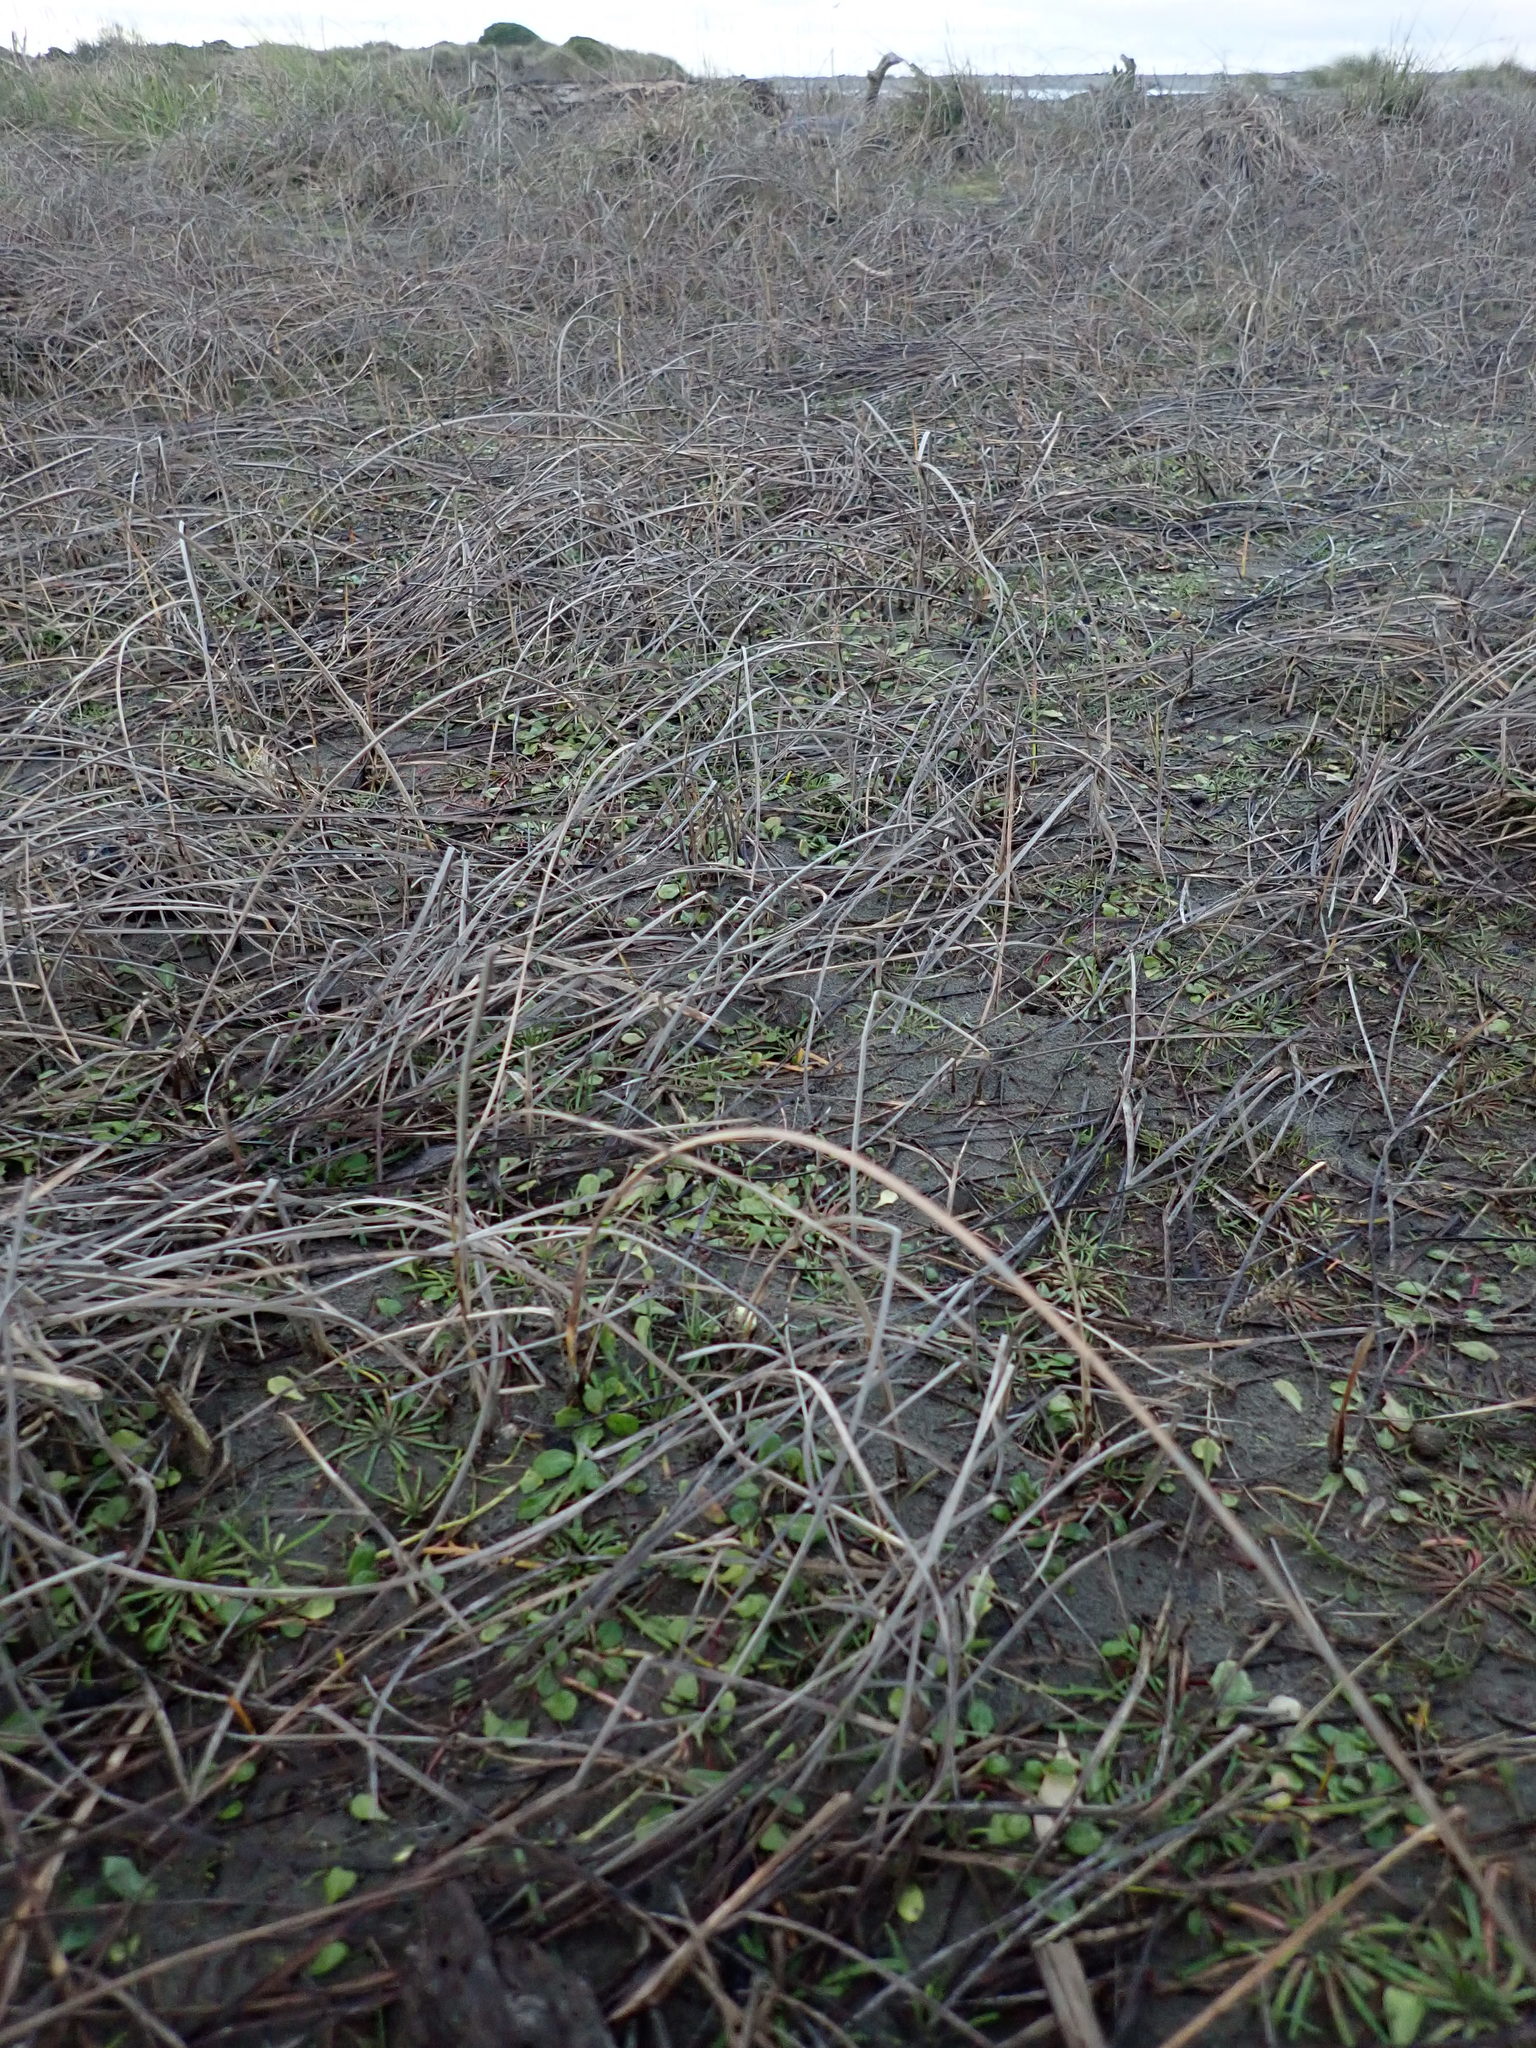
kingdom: Plantae
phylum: Tracheophyta
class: Magnoliopsida
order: Asterales
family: Campanulaceae
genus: Lobelia
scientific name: Lobelia anceps
